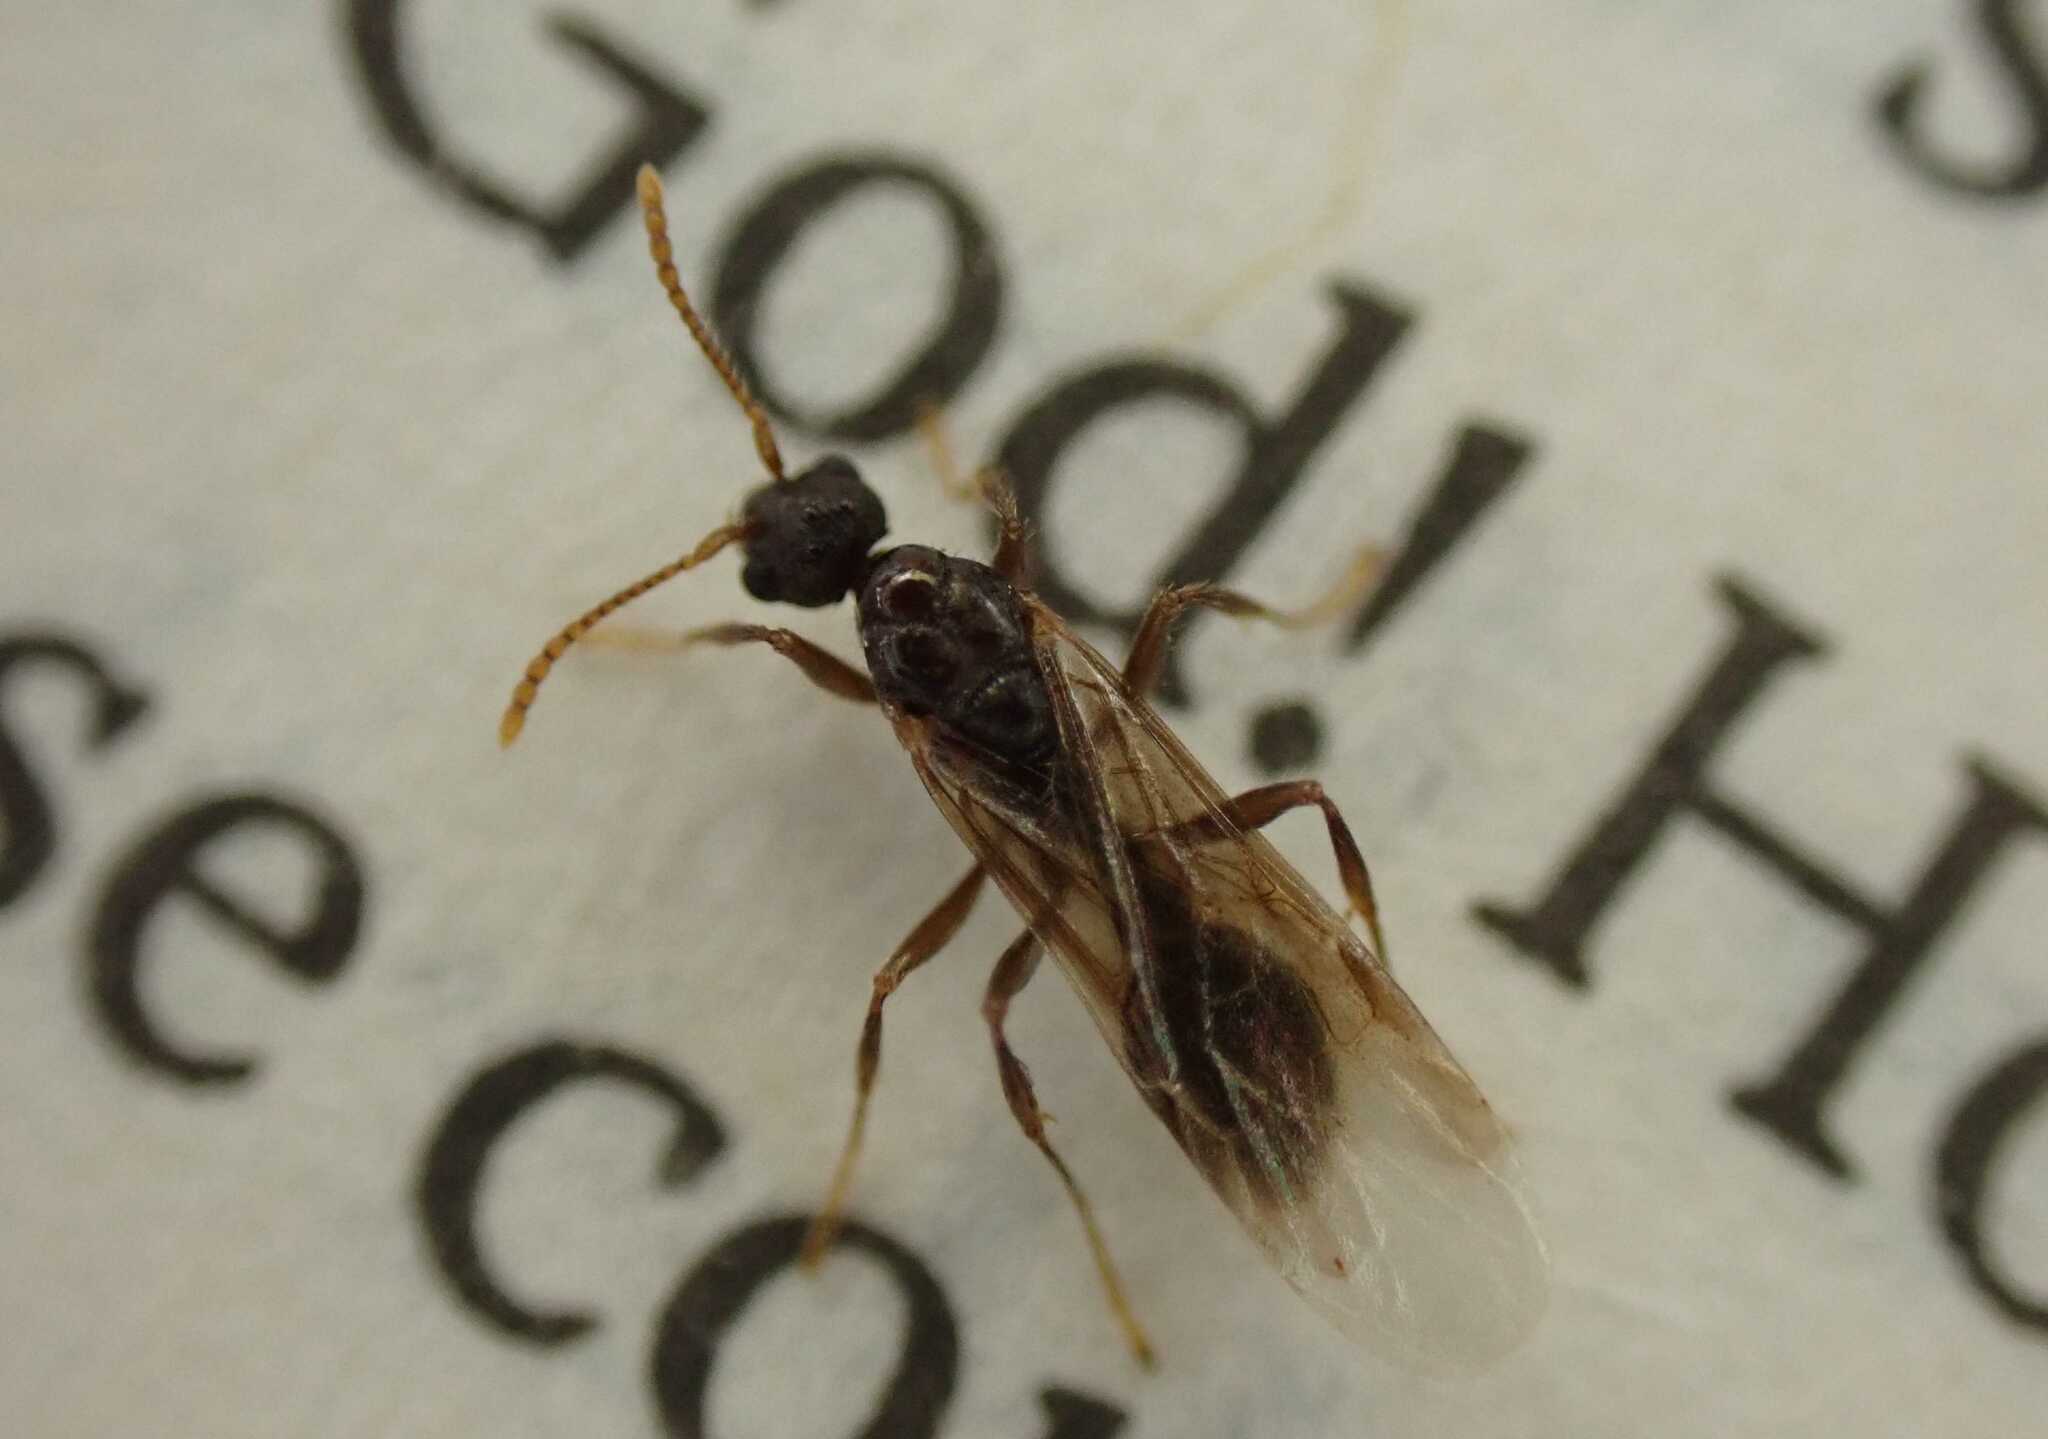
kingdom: Animalia
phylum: Arthropoda
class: Insecta
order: Hymenoptera
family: Formicidae
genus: Myrmica
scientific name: Myrmica
